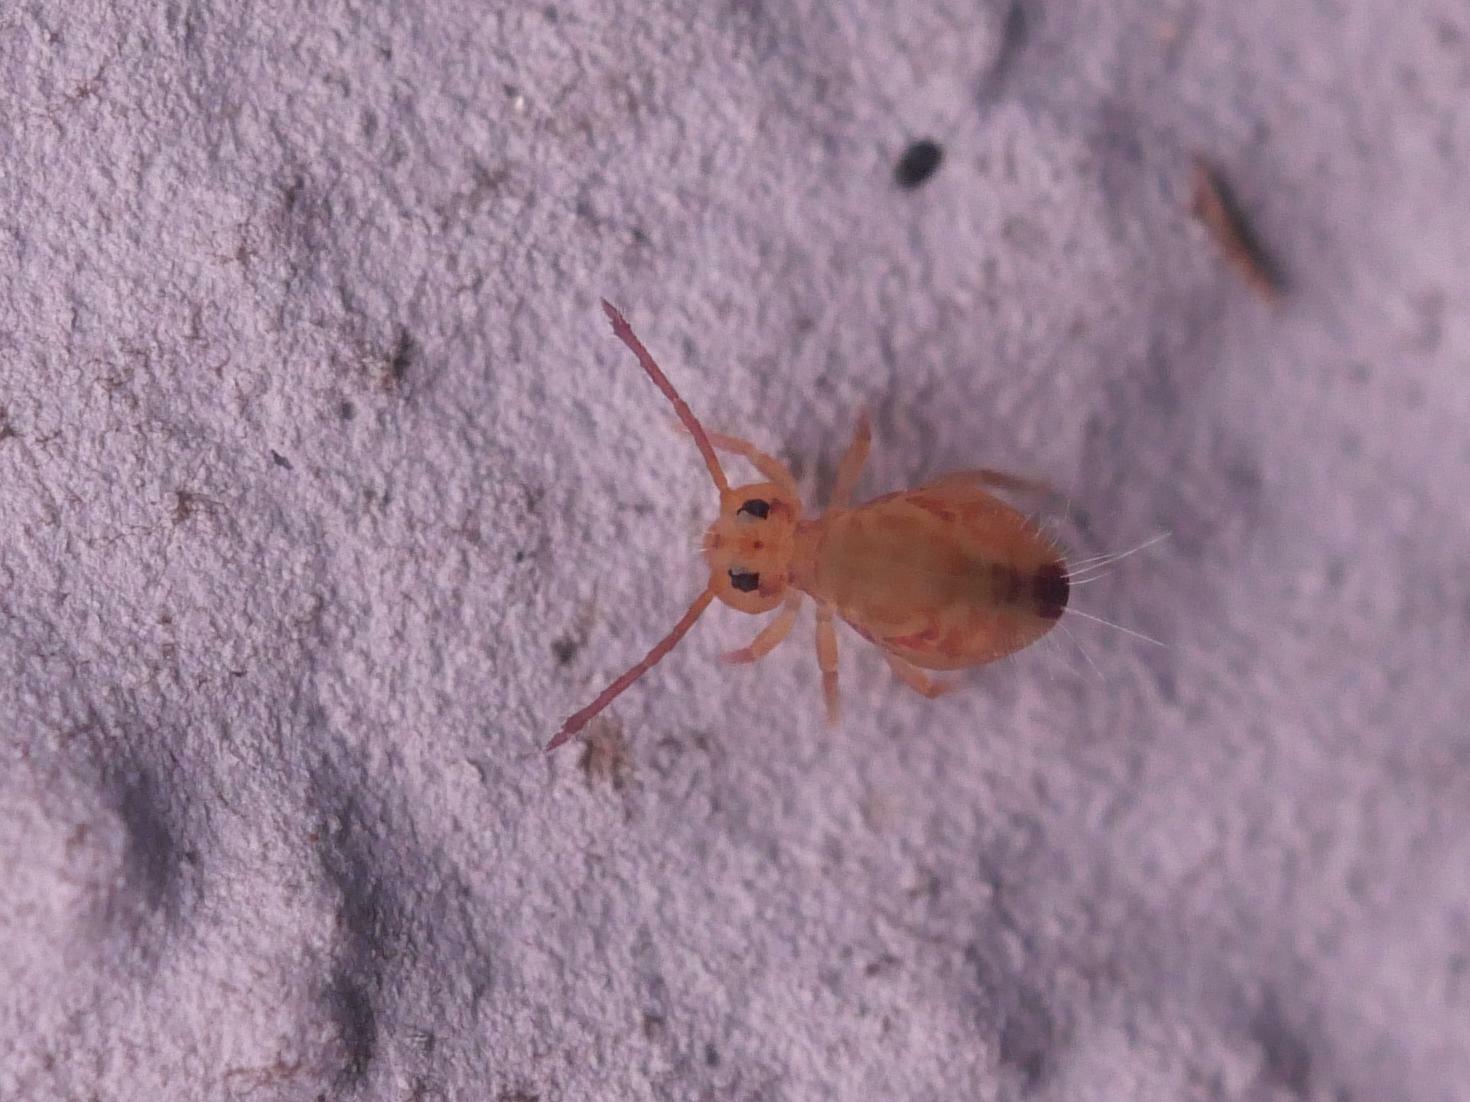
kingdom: Animalia
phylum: Arthropoda
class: Collembola
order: Symphypleona
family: Dicyrtomidae
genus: Dicyrtomina
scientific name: Dicyrtomina ornata
